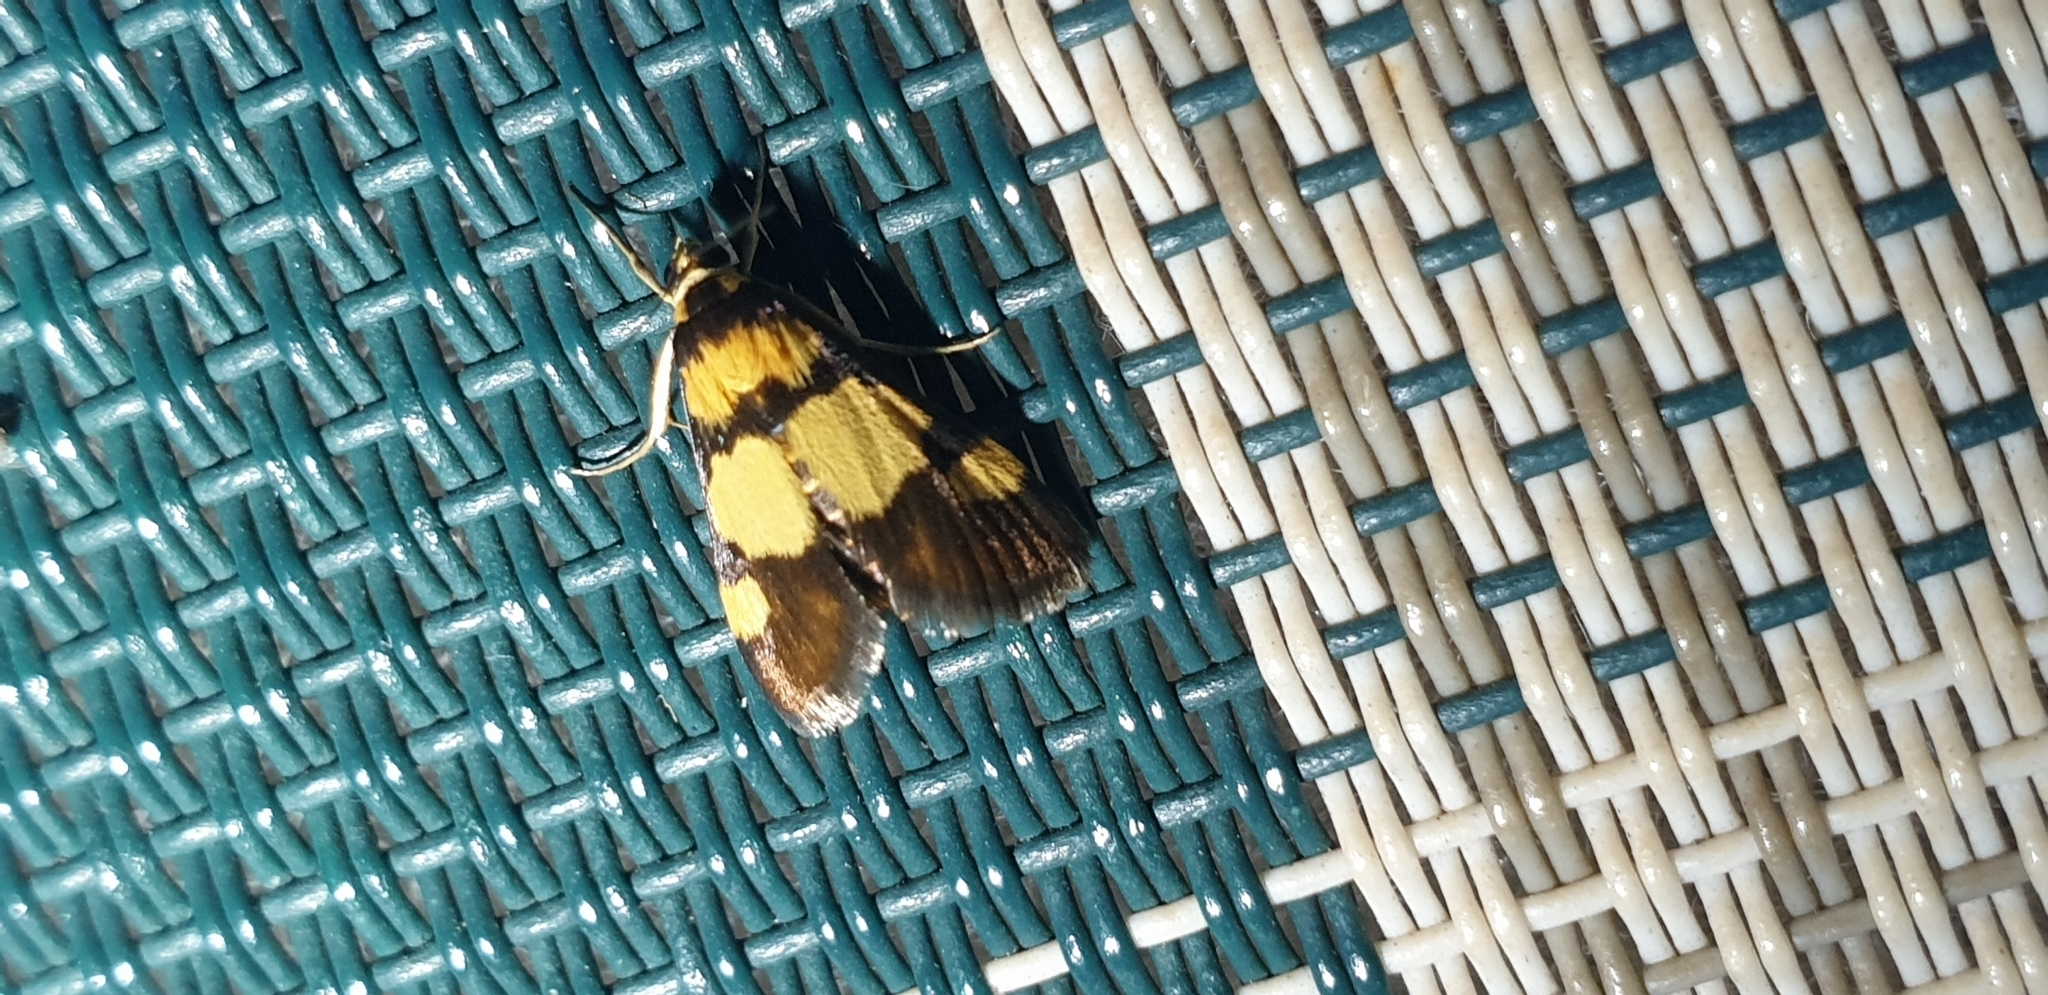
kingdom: Animalia
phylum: Arthropoda
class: Insecta
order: Lepidoptera
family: Crambidae
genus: Deuterarcha
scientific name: Deuterarcha xanthomela
